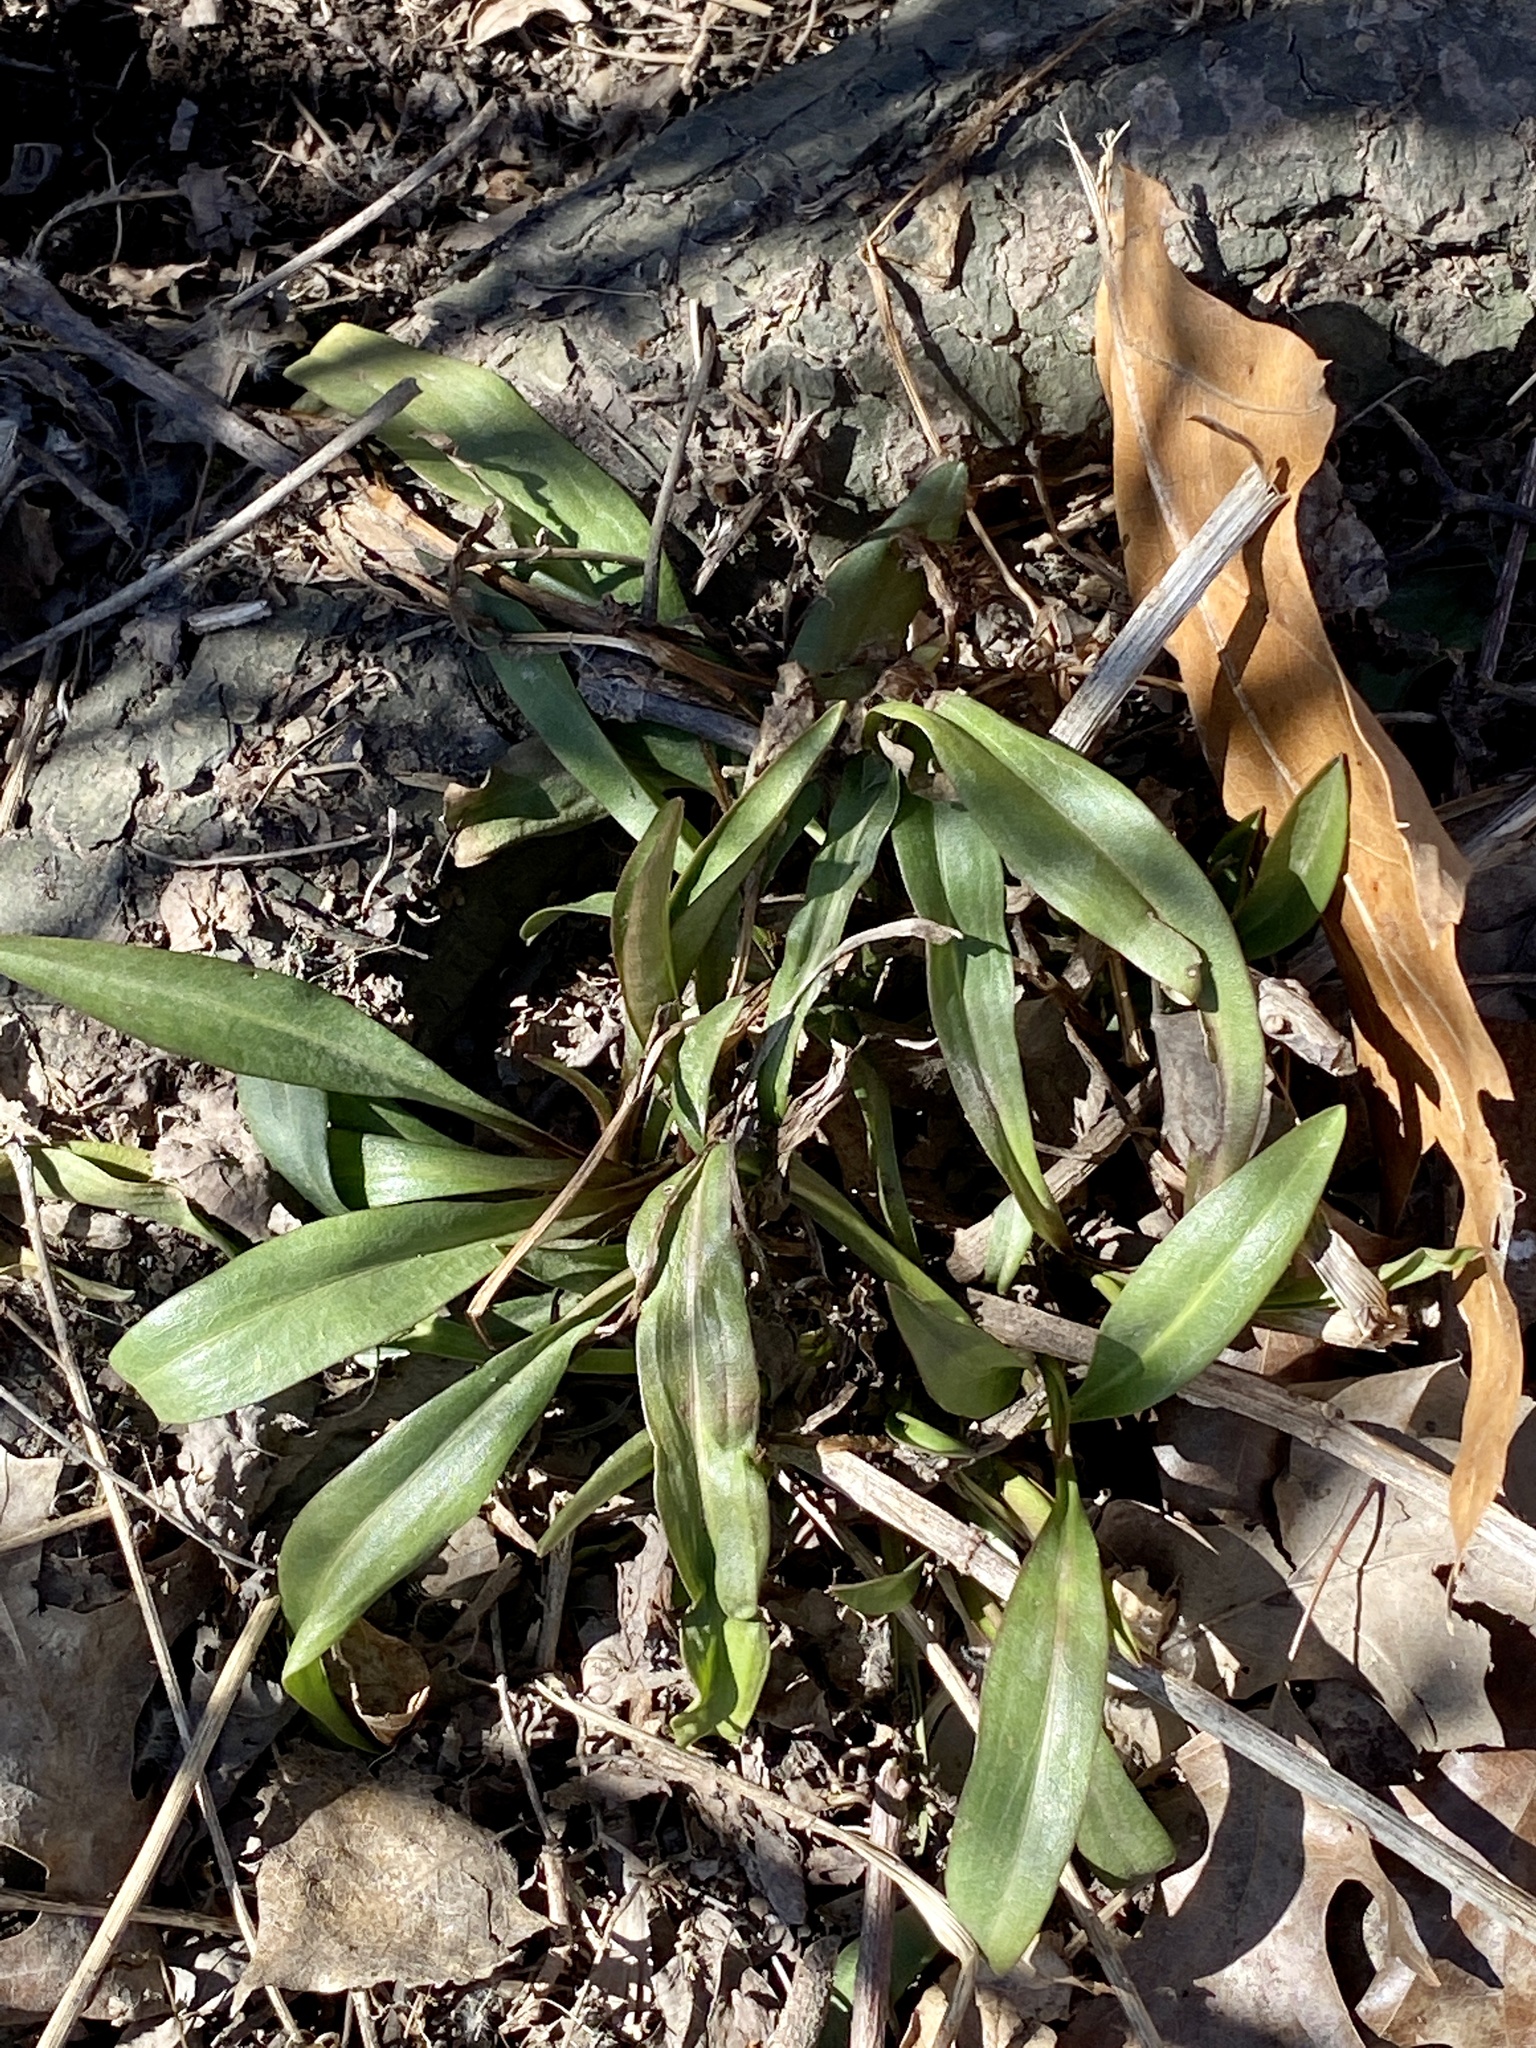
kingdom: Plantae
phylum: Tracheophyta
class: Magnoliopsida
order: Asterales
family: Asteraceae
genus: Solidago
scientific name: Solidago sempervirens
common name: Salt-marsh goldenrod
